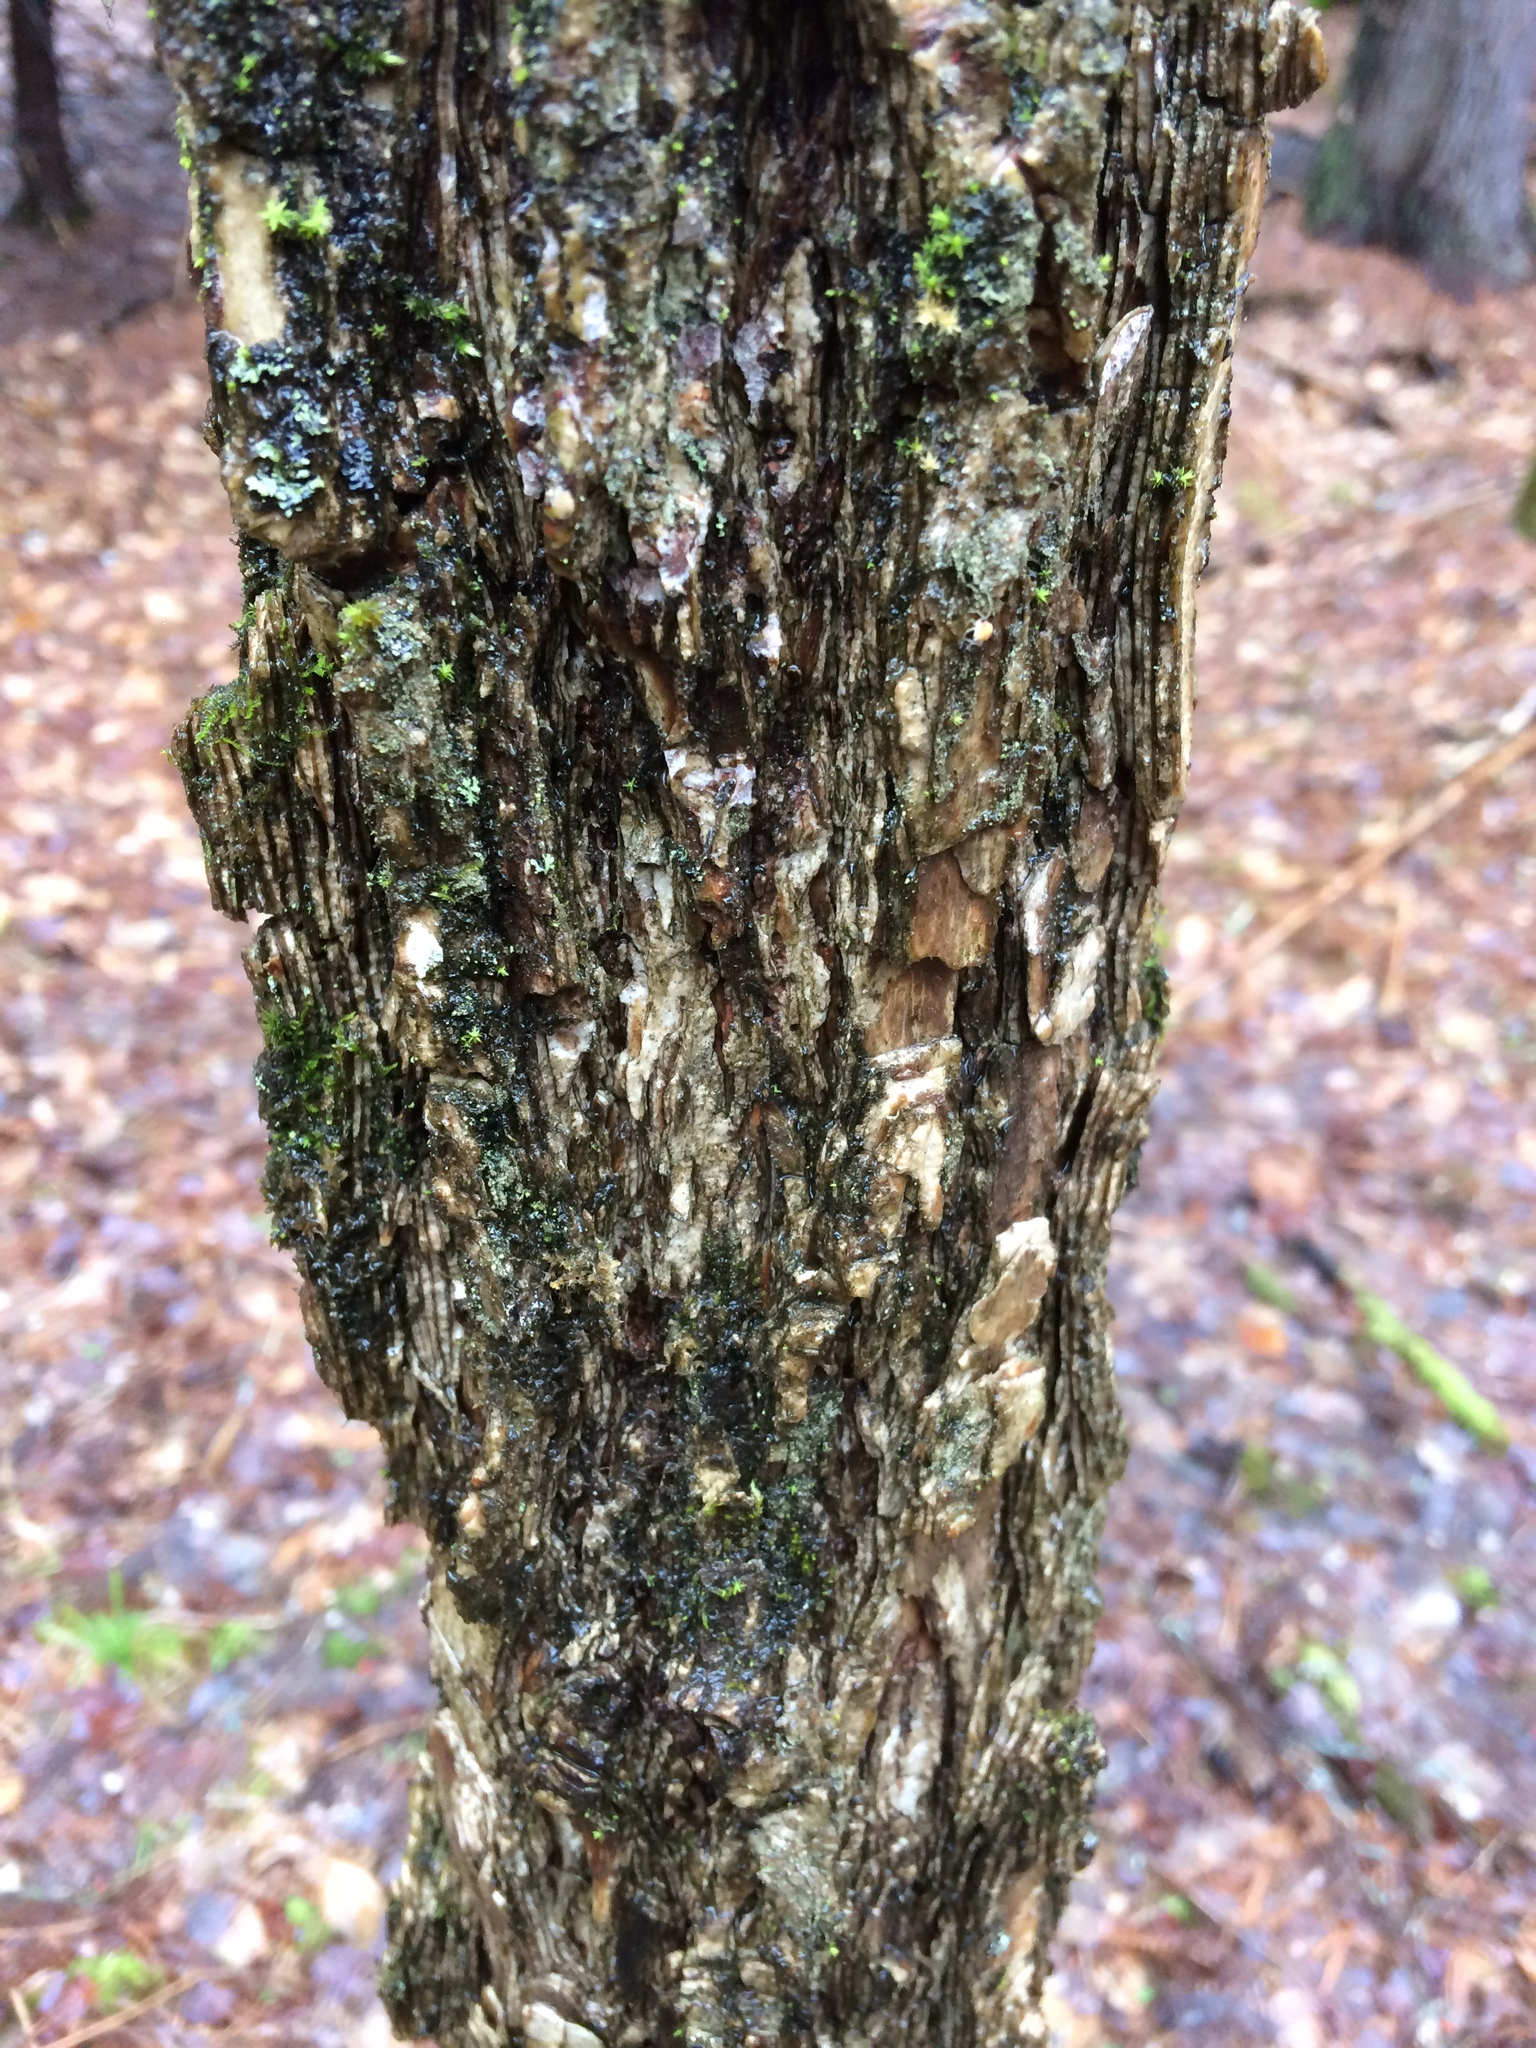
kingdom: Plantae
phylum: Tracheophyta
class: Magnoliopsida
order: Rosales
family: Ulmaceae
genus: Ulmus
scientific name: Ulmus americana
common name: American elm
